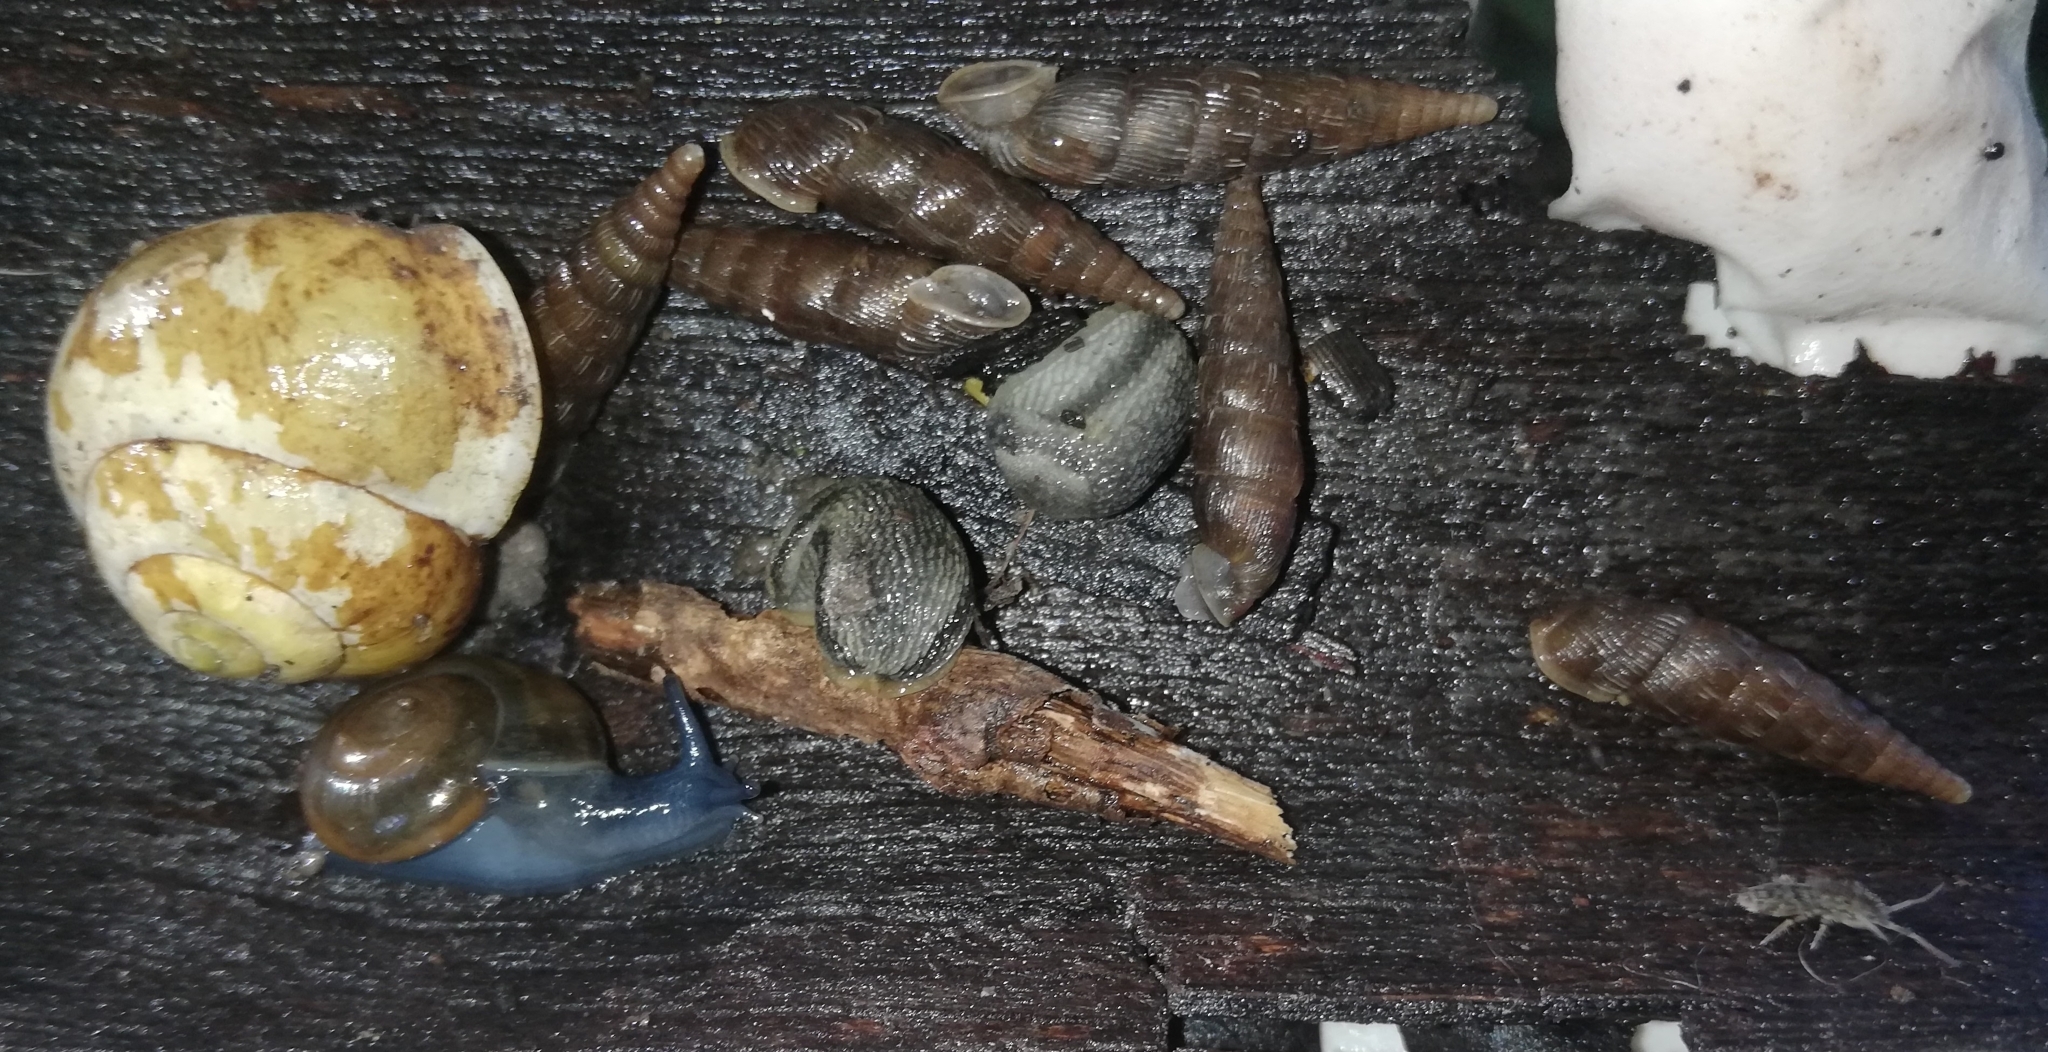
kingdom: Animalia
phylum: Mollusca
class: Gastropoda
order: Stylommatophora
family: Helicidae
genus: Cepaea
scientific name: Cepaea hortensis
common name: White-lip gardensnail
